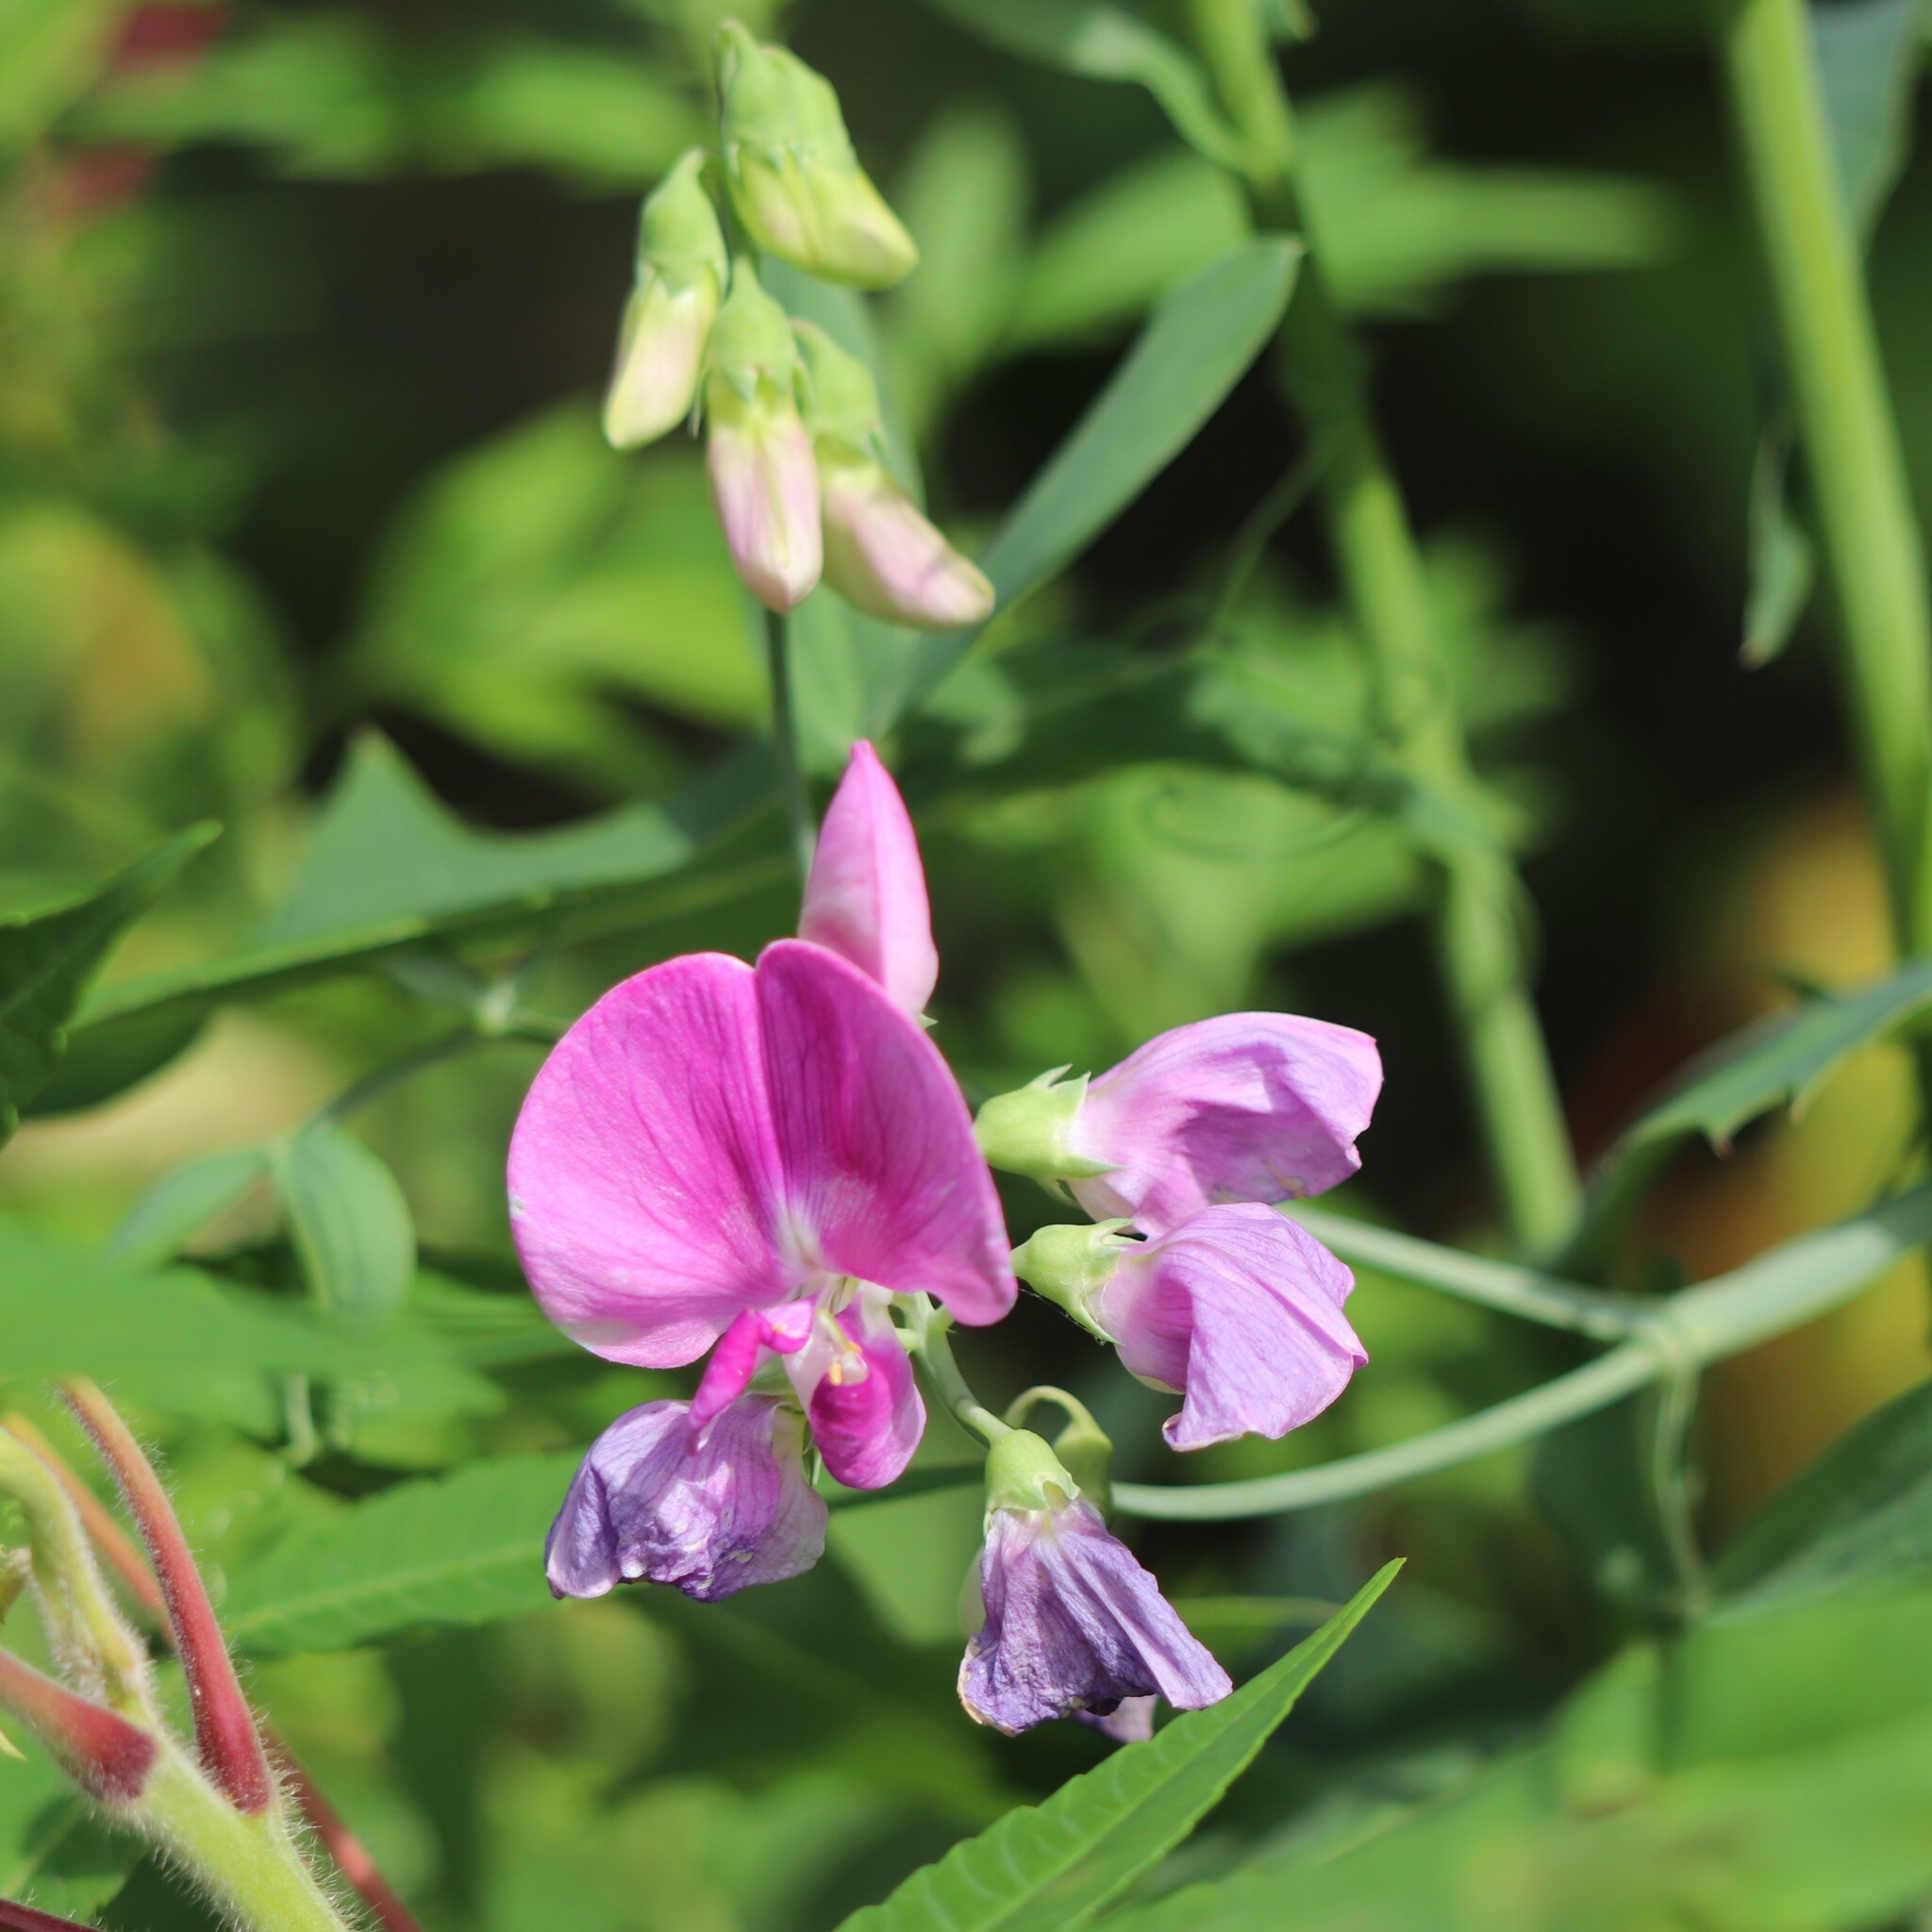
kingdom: Plantae
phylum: Tracheophyta
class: Magnoliopsida
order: Fabales
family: Fabaceae
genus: Lathyrus
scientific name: Lathyrus latifolius
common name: Perennial pea
